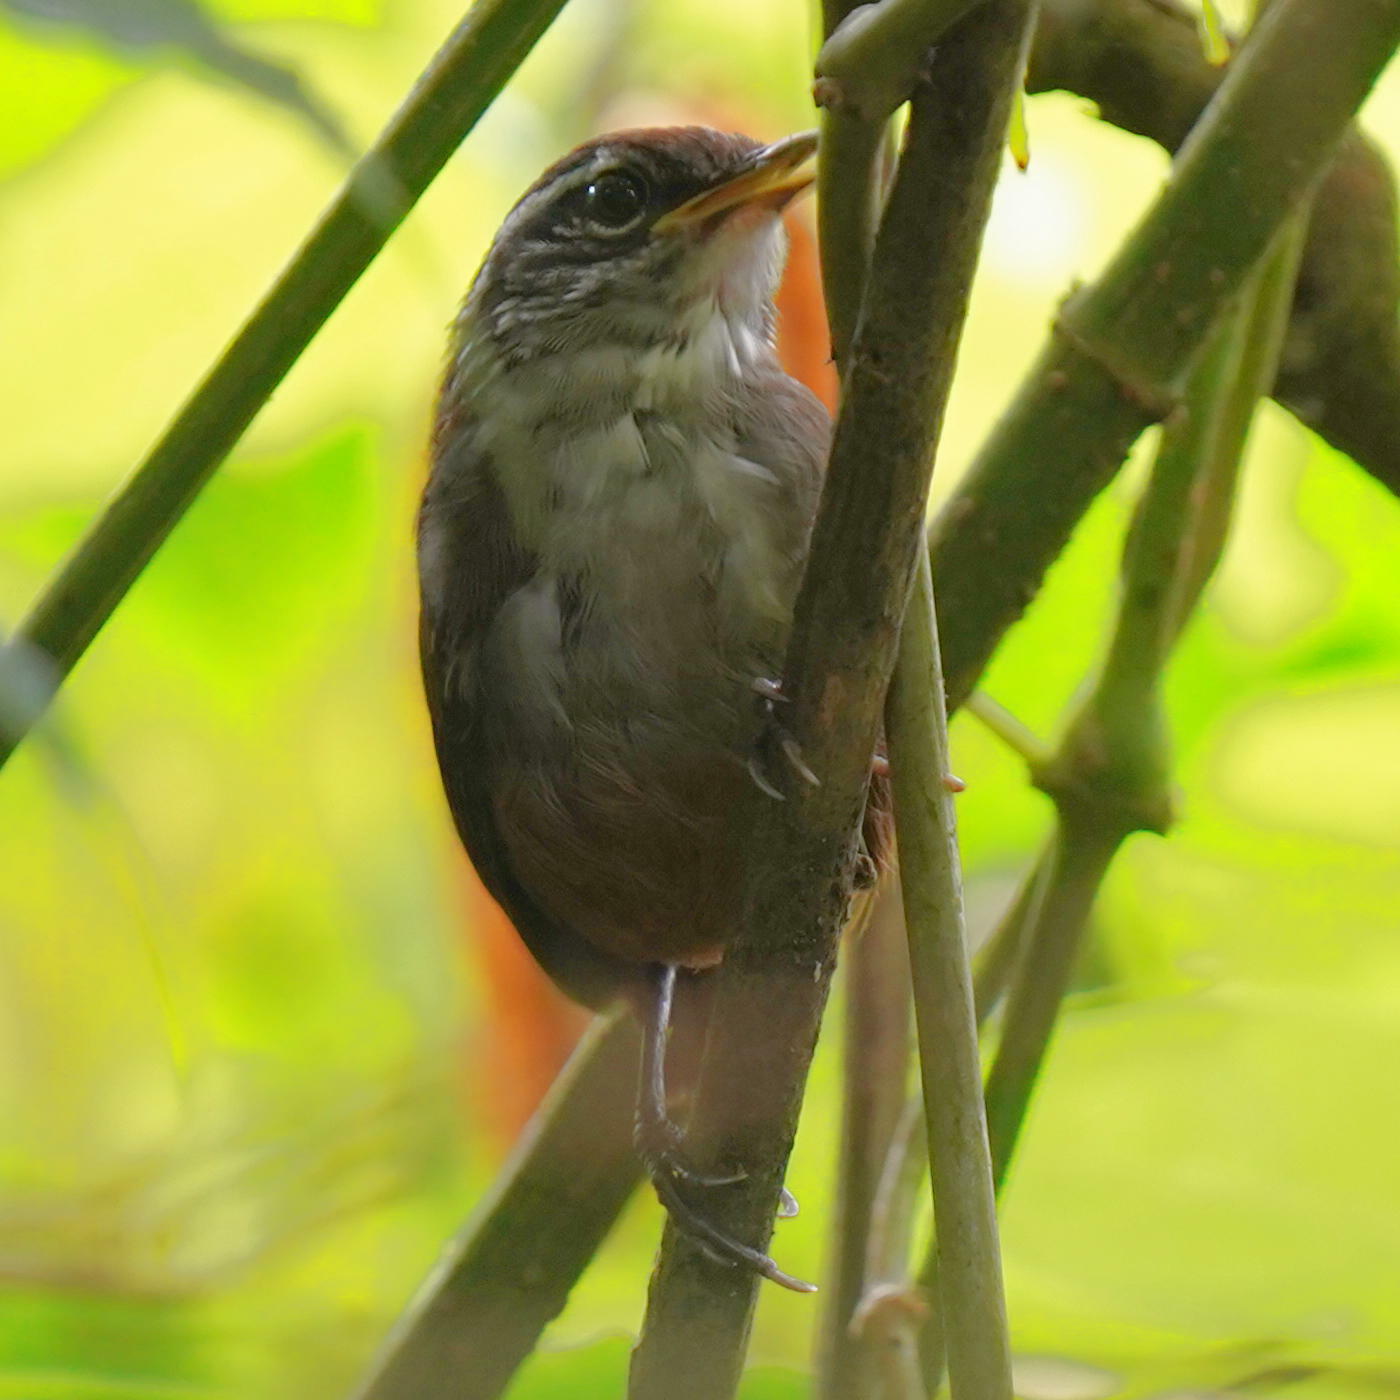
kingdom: Animalia
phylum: Chordata
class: Aves
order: Passeriformes
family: Troglodytidae
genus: Henicorhina
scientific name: Henicorhina leucosticta
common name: White-breasted wood-wren
